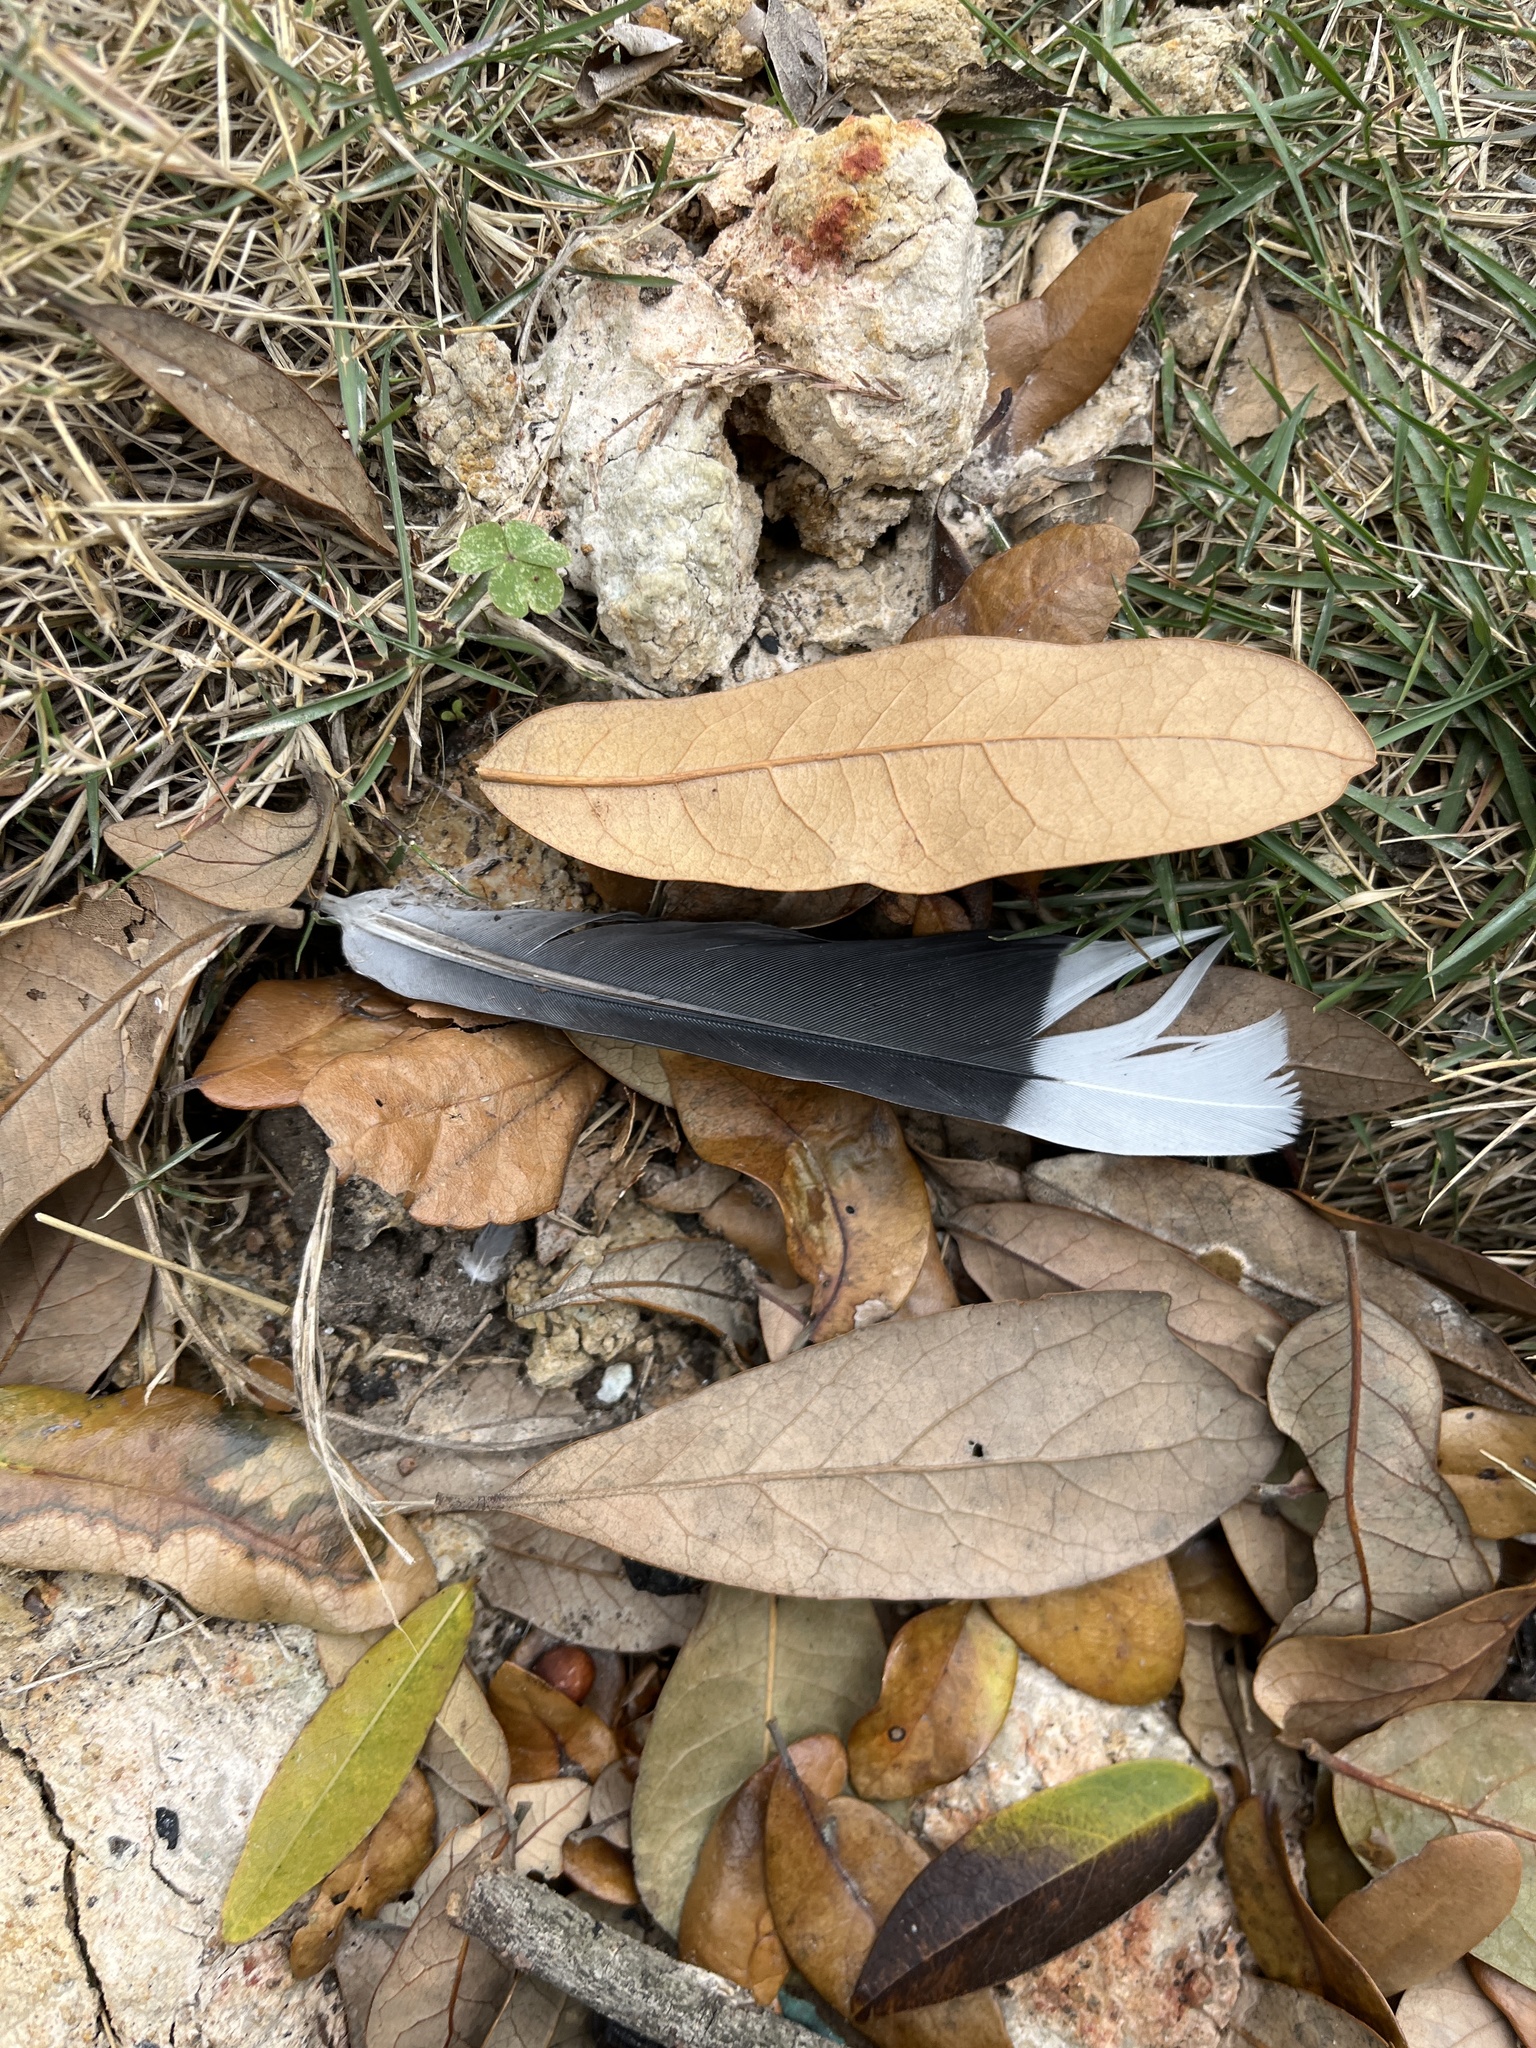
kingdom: Animalia
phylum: Chordata
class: Aves
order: Columbiformes
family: Columbidae
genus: Zenaida
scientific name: Zenaida asiatica
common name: White-winged dove
